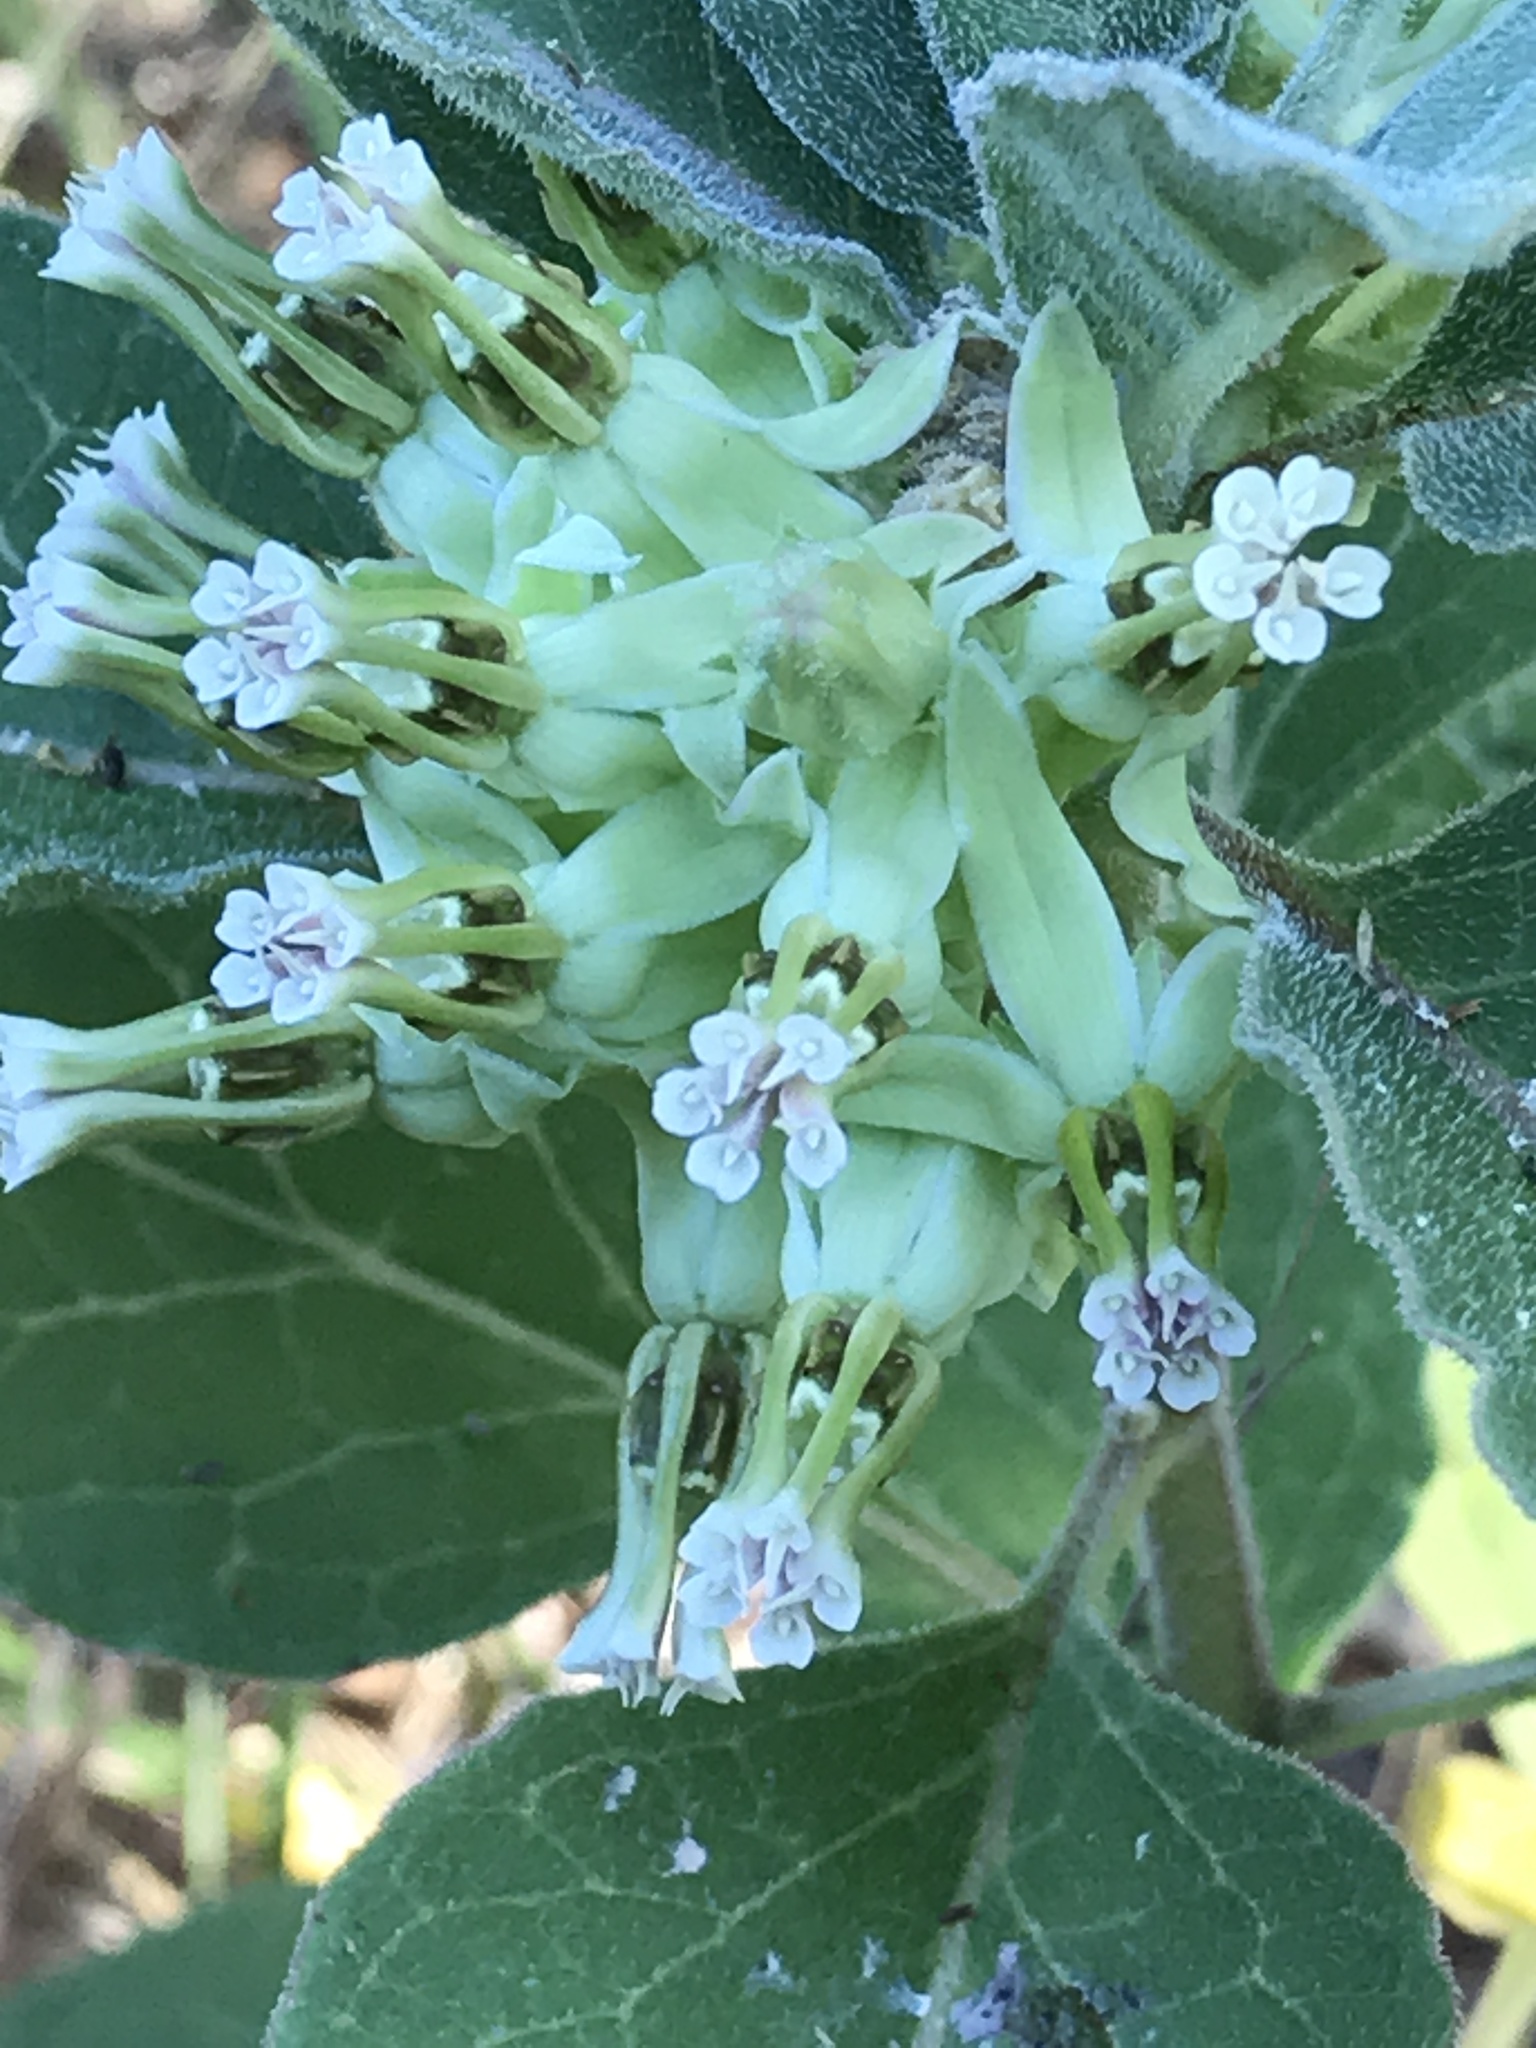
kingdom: Plantae
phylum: Tracheophyta
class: Magnoliopsida
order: Gentianales
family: Apocynaceae
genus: Asclepias
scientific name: Asclepias oenotheroides
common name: Zizotes milkweed
